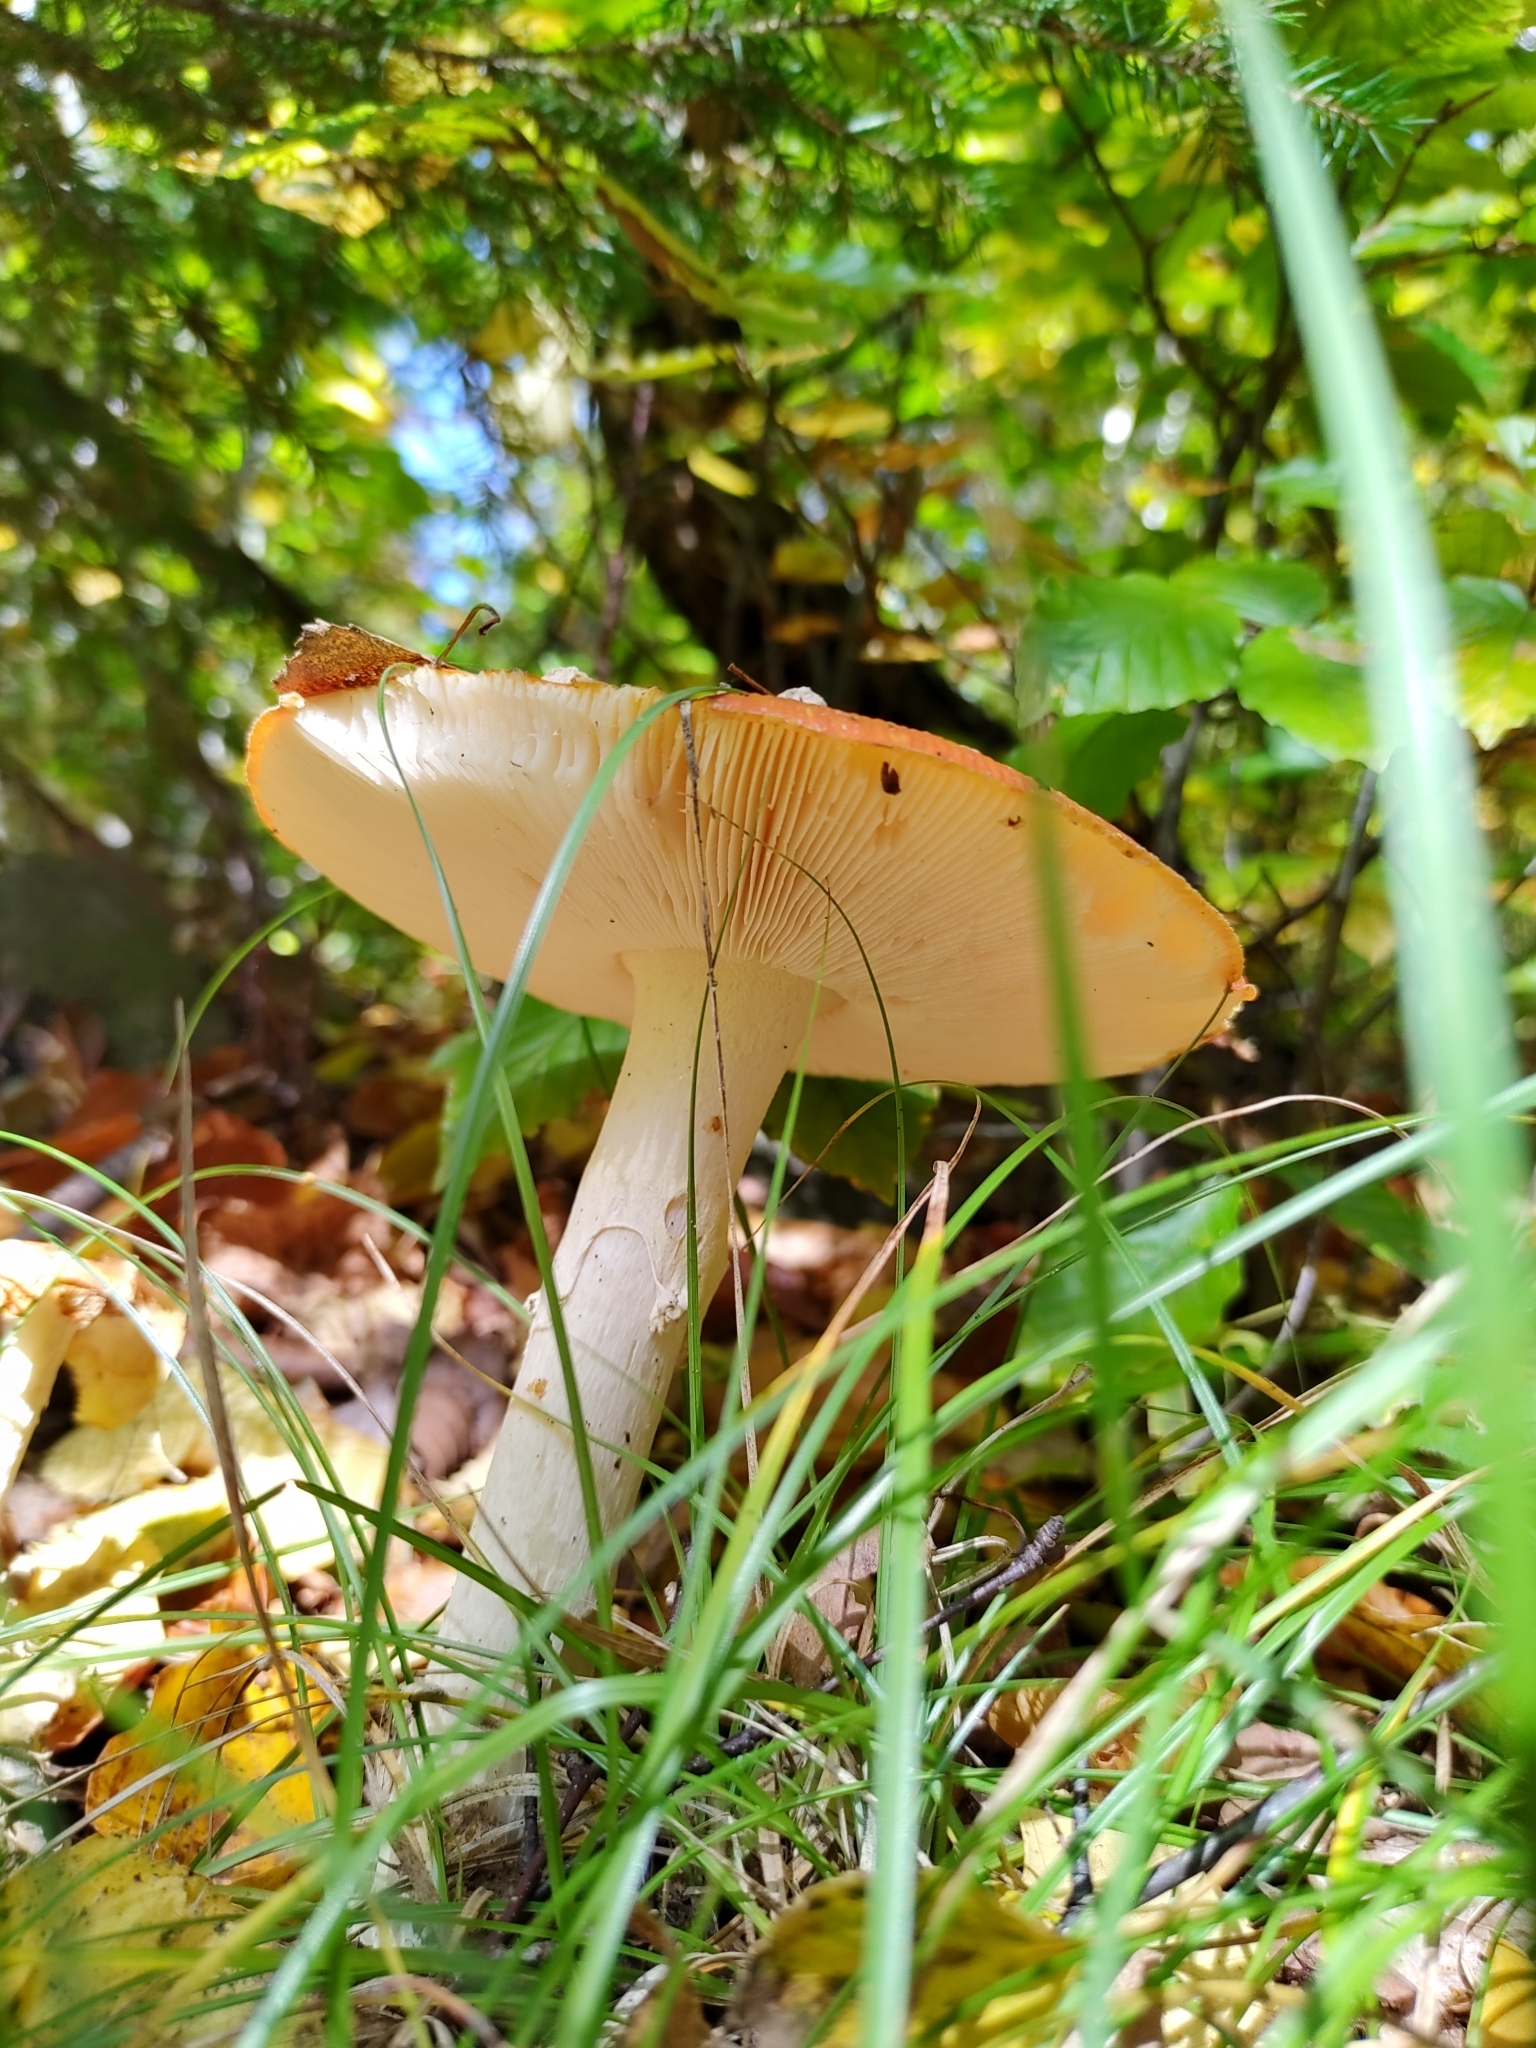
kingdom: Fungi
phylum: Basidiomycota
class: Agaricomycetes
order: Agaricales
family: Amanitaceae
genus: Amanita
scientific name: Amanita muscaria
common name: Fly agaric
